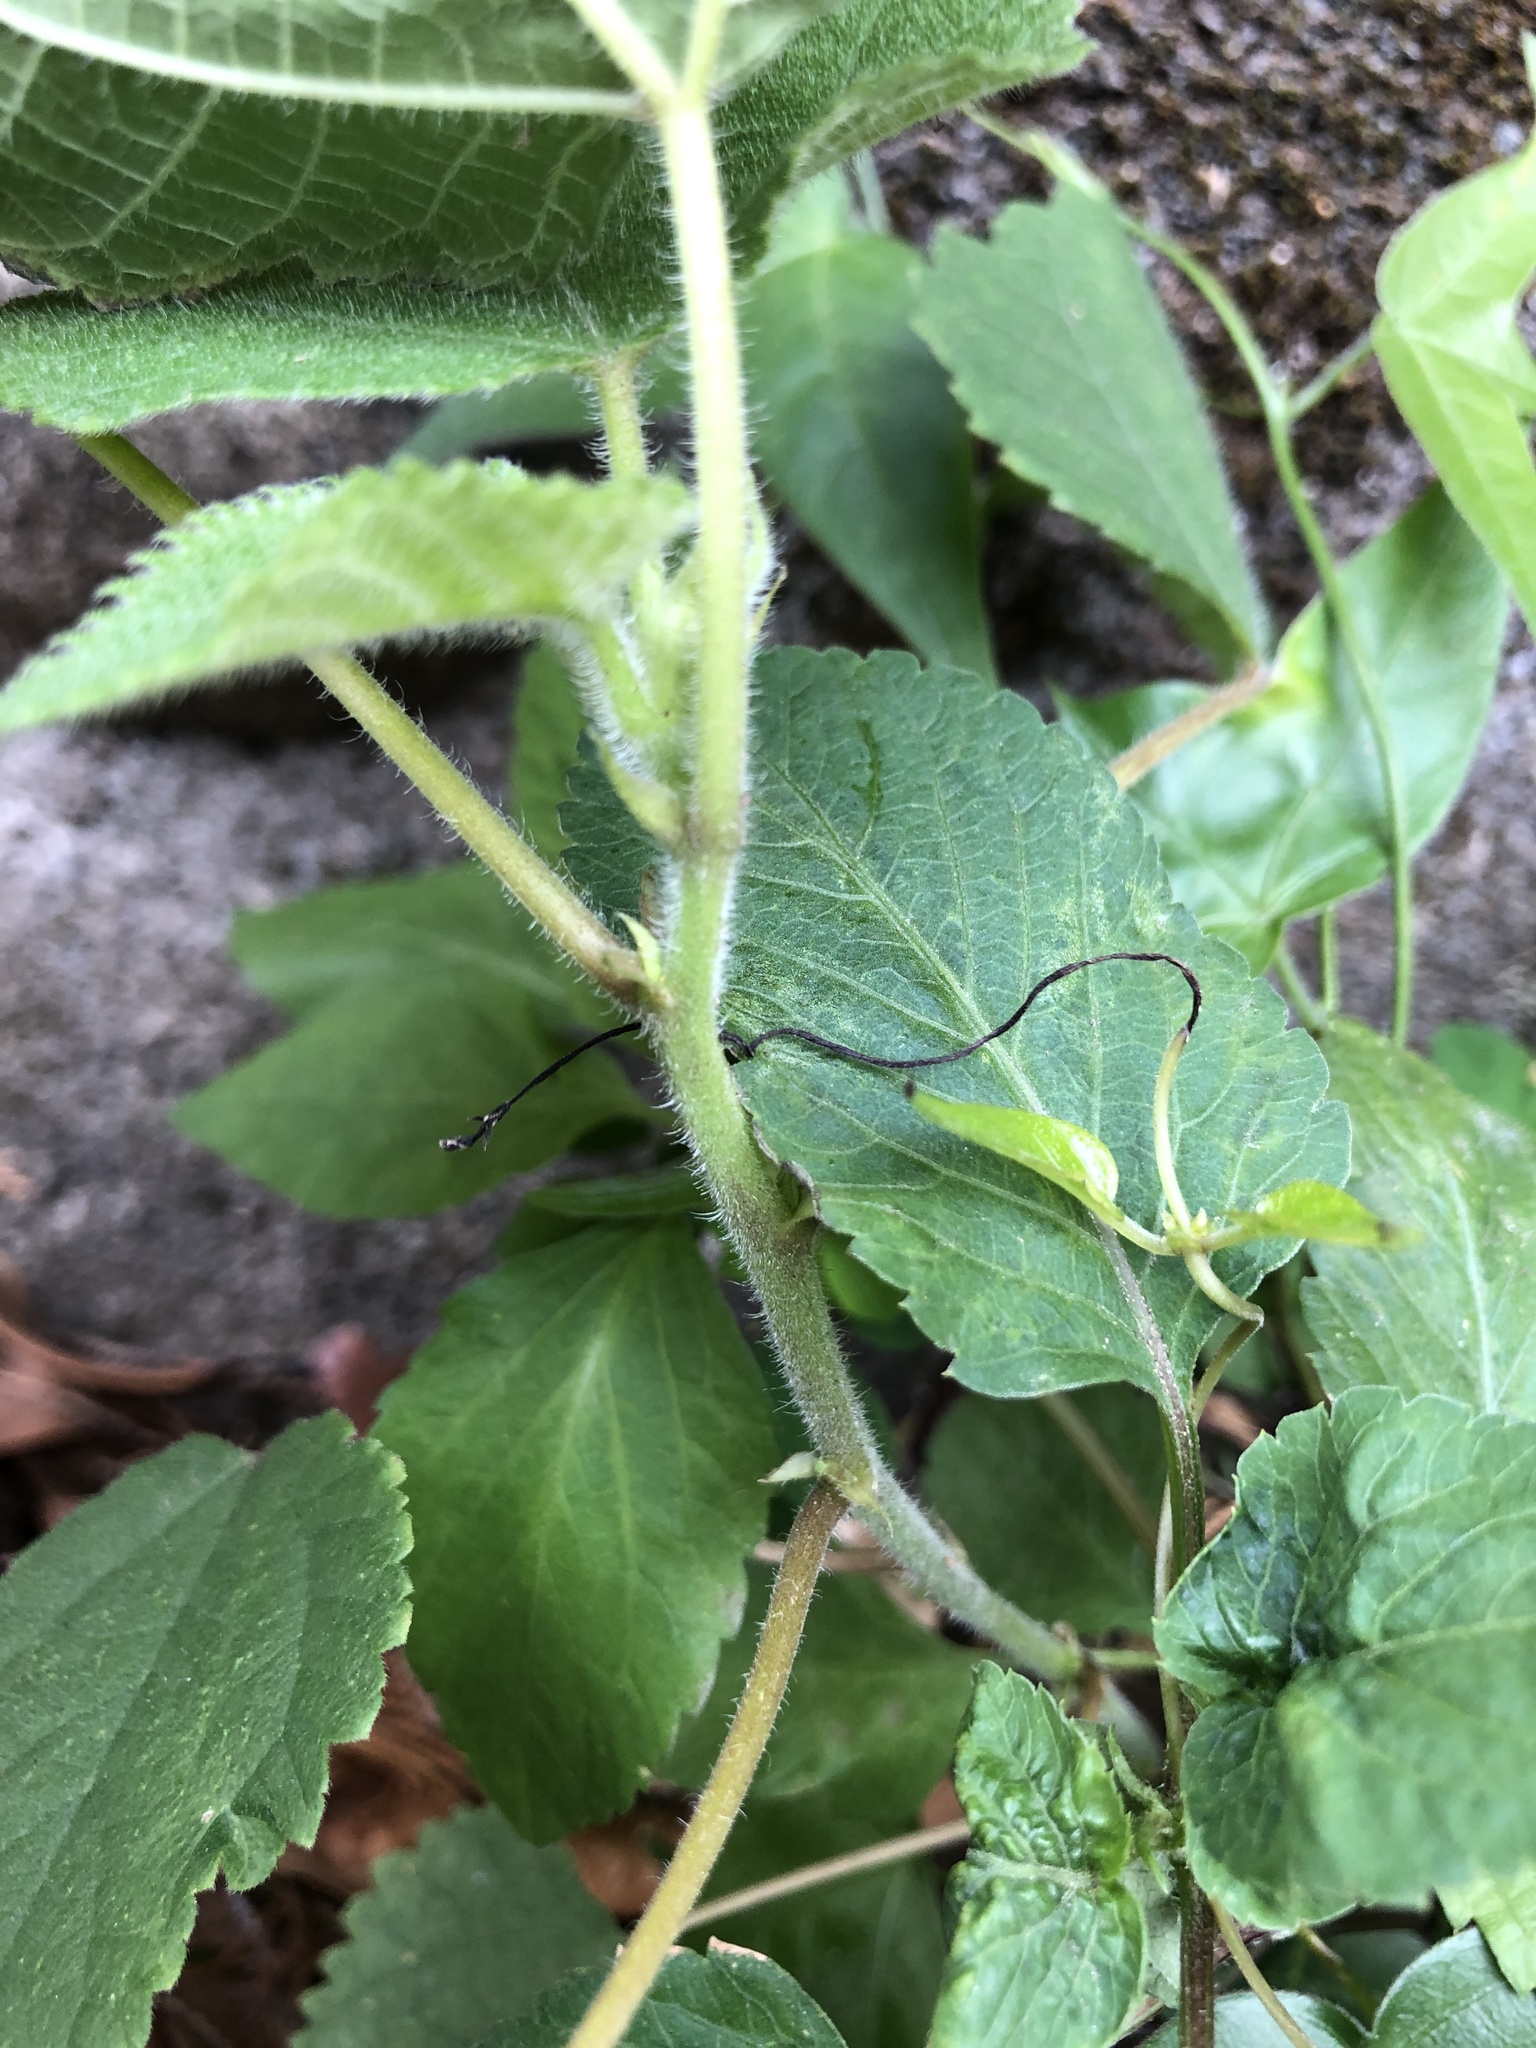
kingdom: Plantae
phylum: Tracheophyta
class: Magnoliopsida
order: Rosales
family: Moraceae
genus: Broussonetia
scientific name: Broussonetia papyrifera
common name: Paper mulberry
